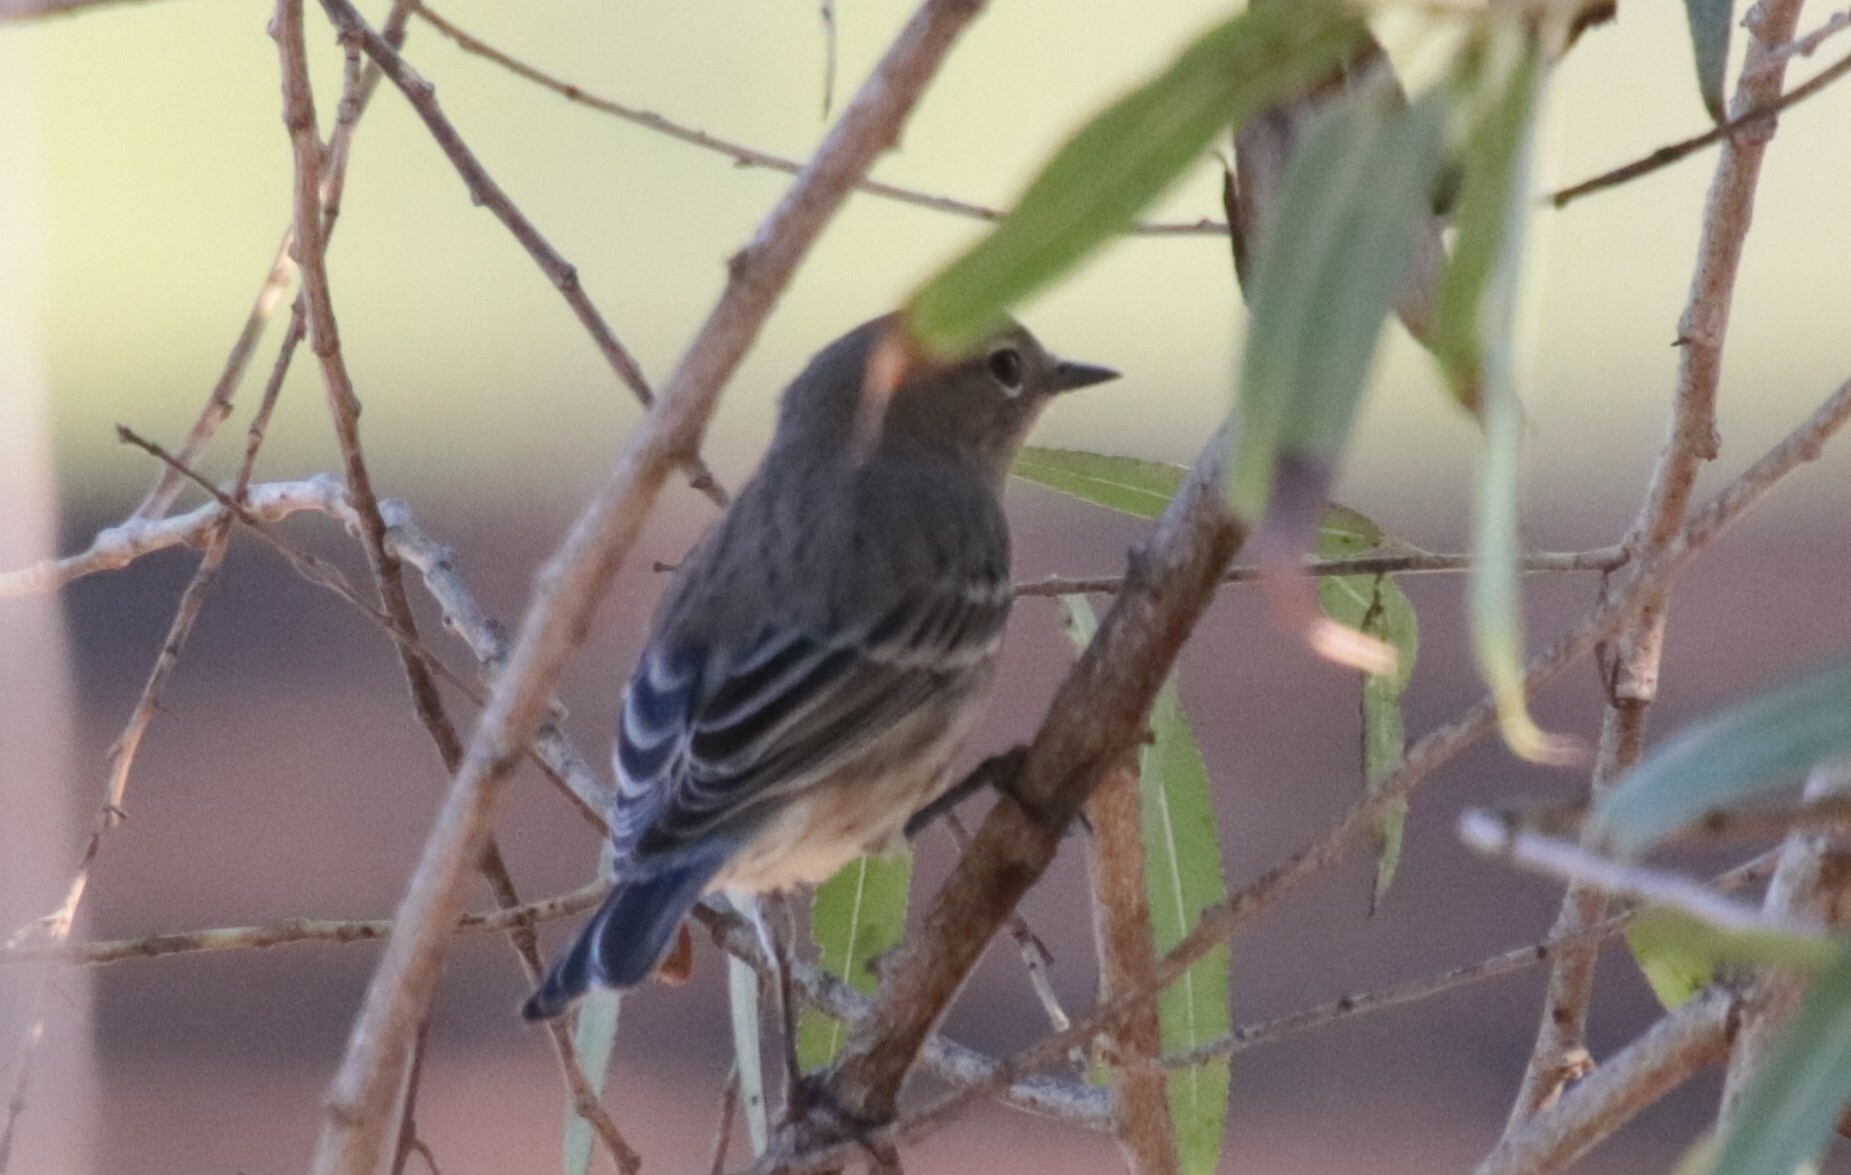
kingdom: Animalia
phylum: Chordata
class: Aves
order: Passeriformes
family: Parulidae
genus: Setophaga
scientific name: Setophaga coronata
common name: Myrtle warbler
